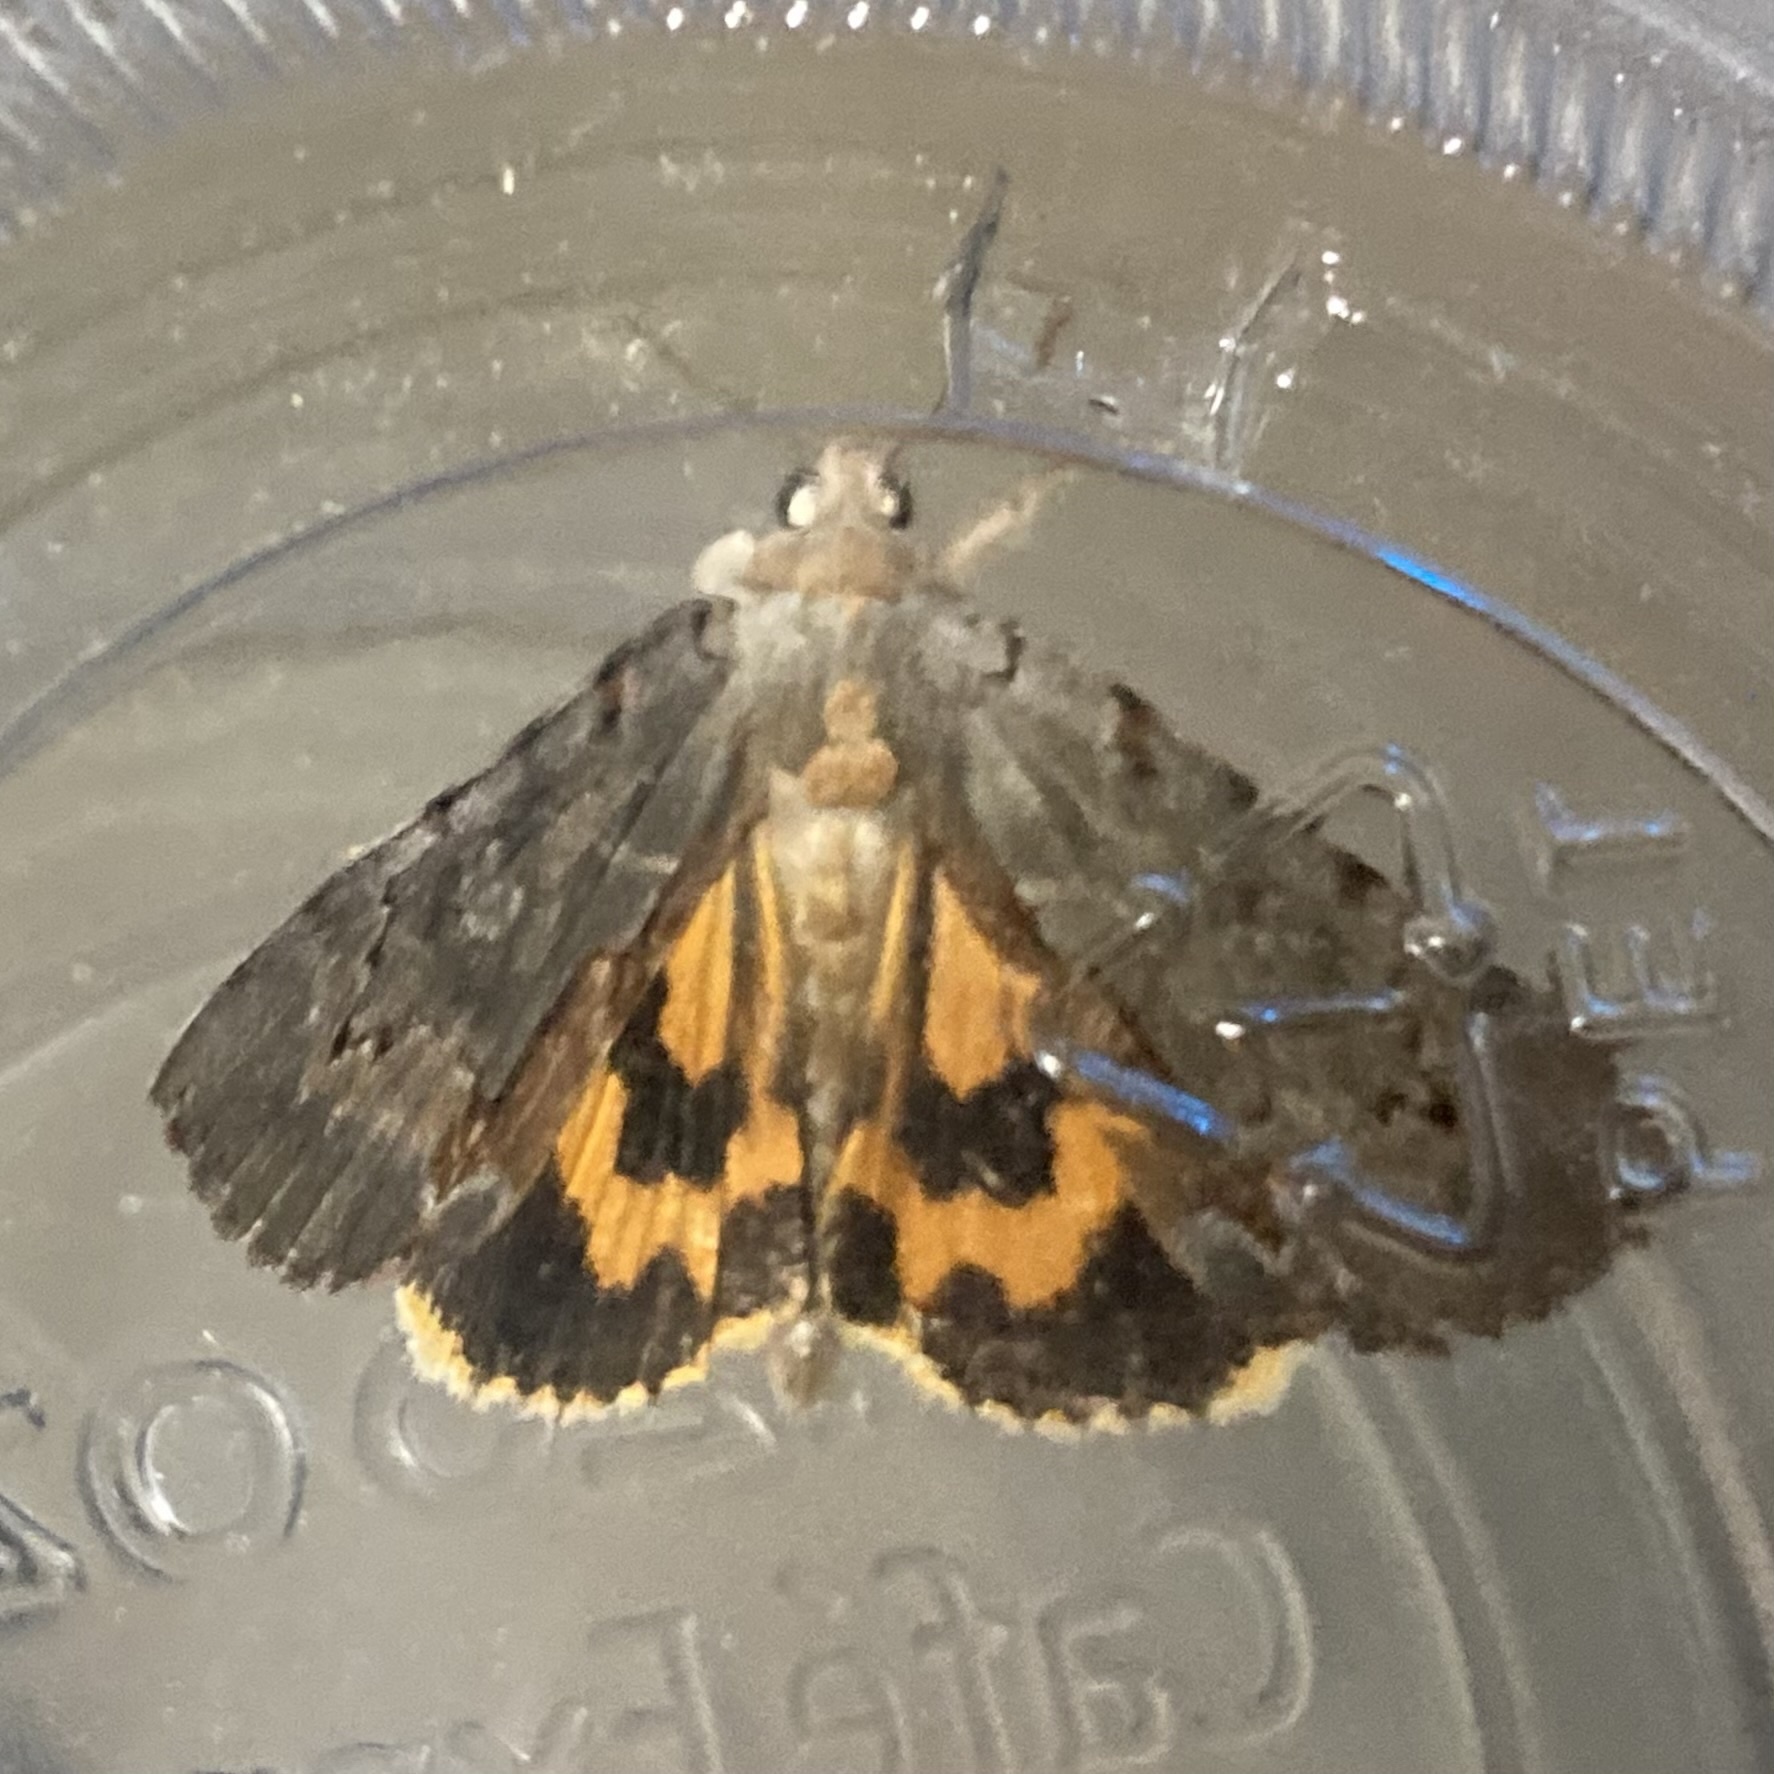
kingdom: Animalia
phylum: Arthropoda
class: Insecta
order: Lepidoptera
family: Erebidae
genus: Catocala
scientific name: Catocala grynea
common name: Woody underwing
